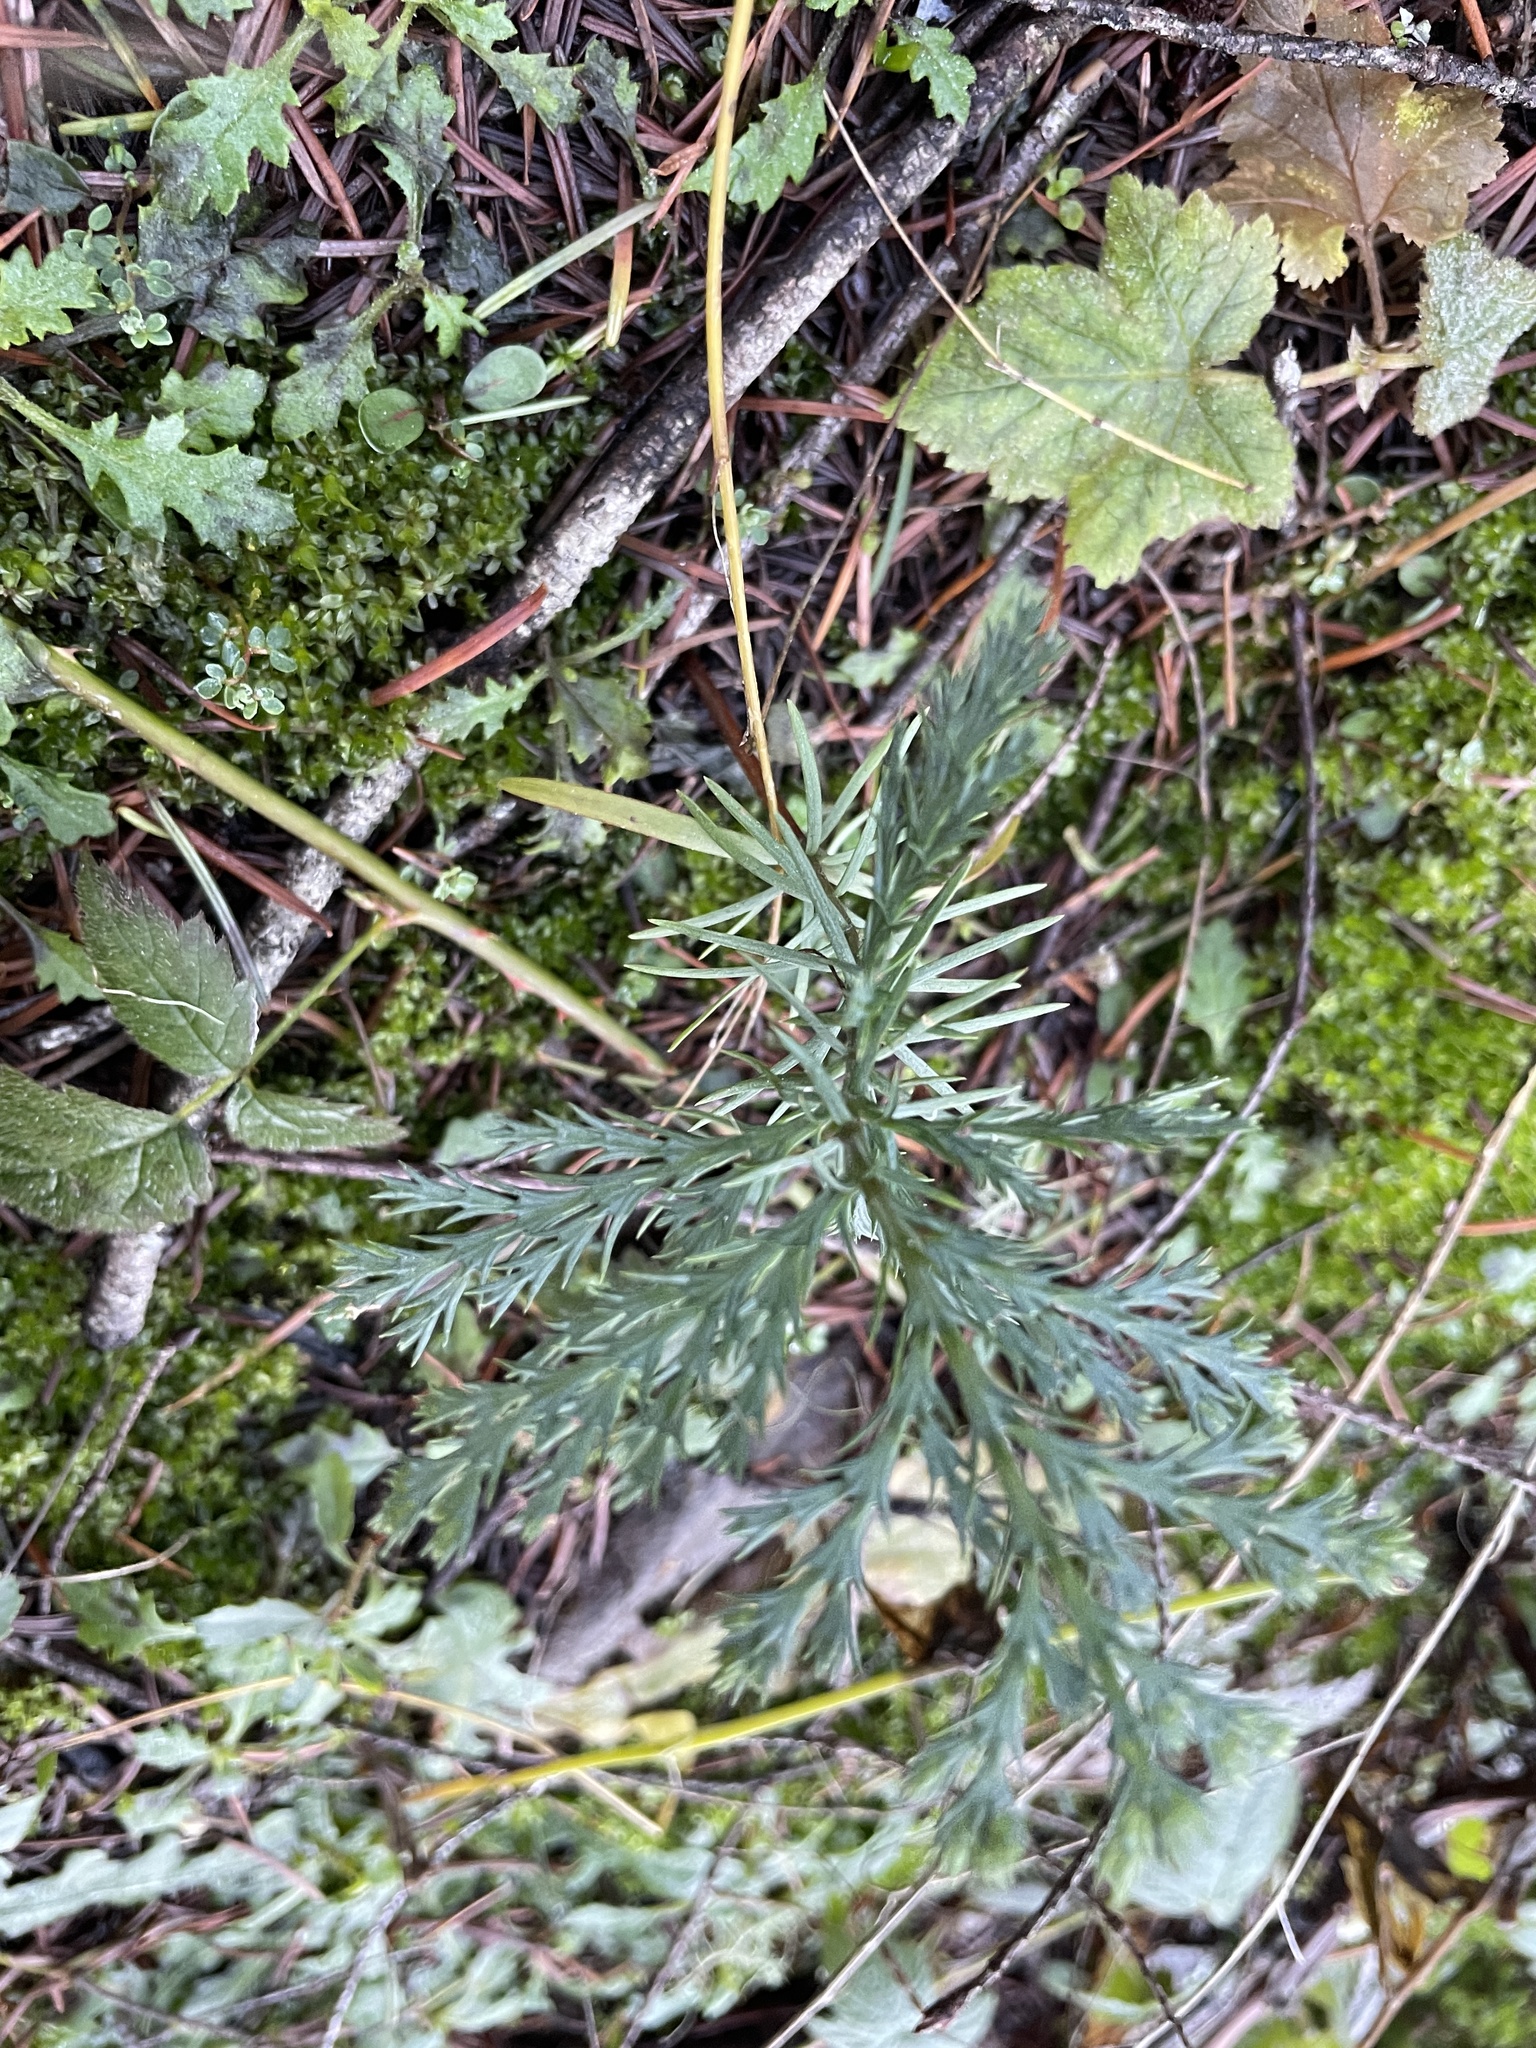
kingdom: Plantae
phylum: Tracheophyta
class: Pinopsida
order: Pinales
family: Cupressaceae
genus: Calocedrus
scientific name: Calocedrus decurrens
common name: Californian incense-cedar
